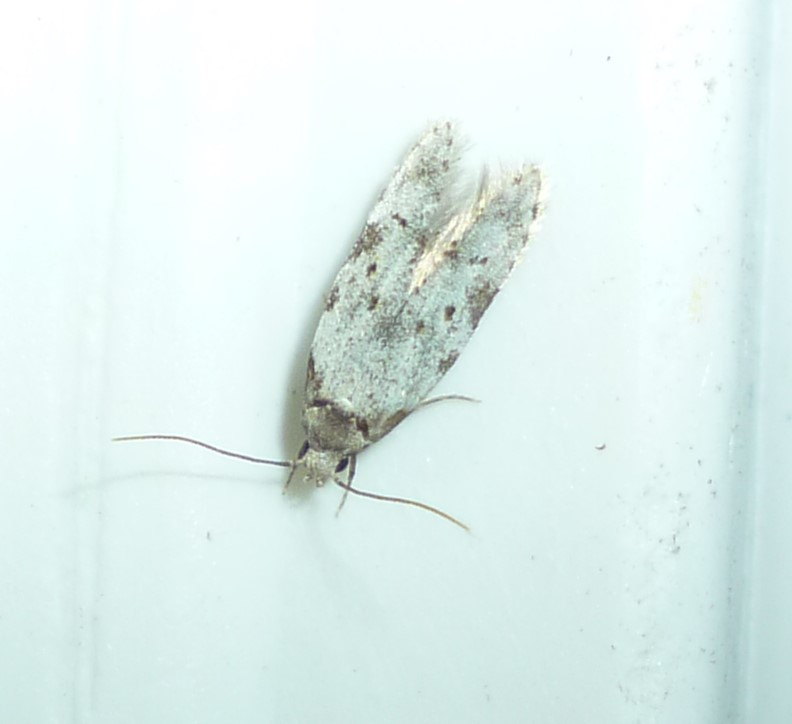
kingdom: Animalia
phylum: Arthropoda
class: Insecta
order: Lepidoptera
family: Autostichidae
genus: Taygete
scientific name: Taygete attributella
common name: Triangle-marked twirler moth
